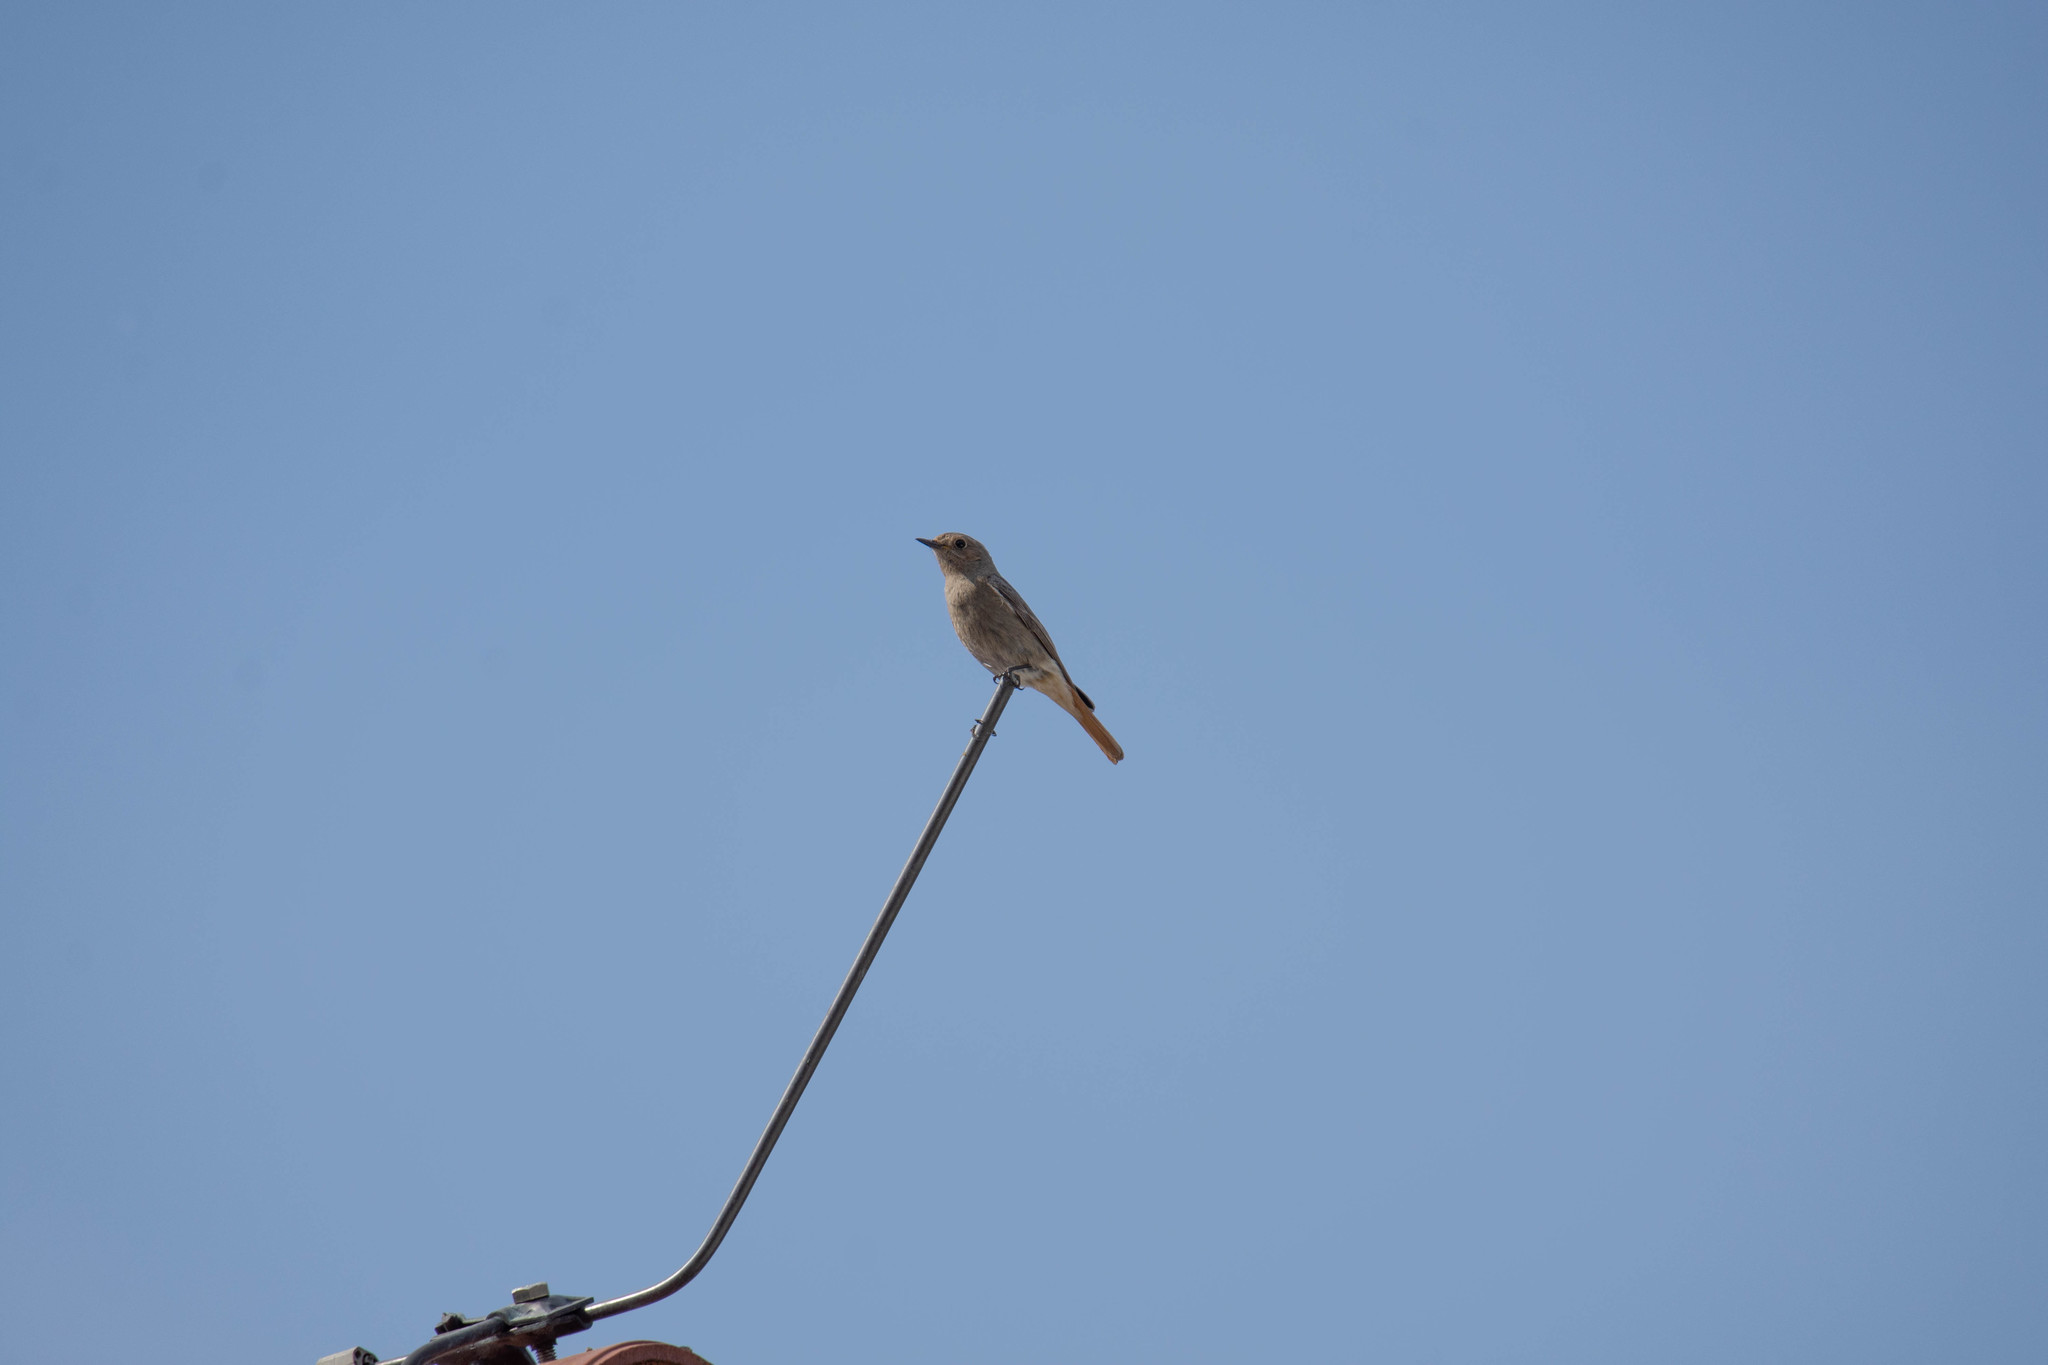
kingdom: Animalia
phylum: Chordata
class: Aves
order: Passeriformes
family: Muscicapidae
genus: Phoenicurus
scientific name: Phoenicurus ochruros
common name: Black redstart
